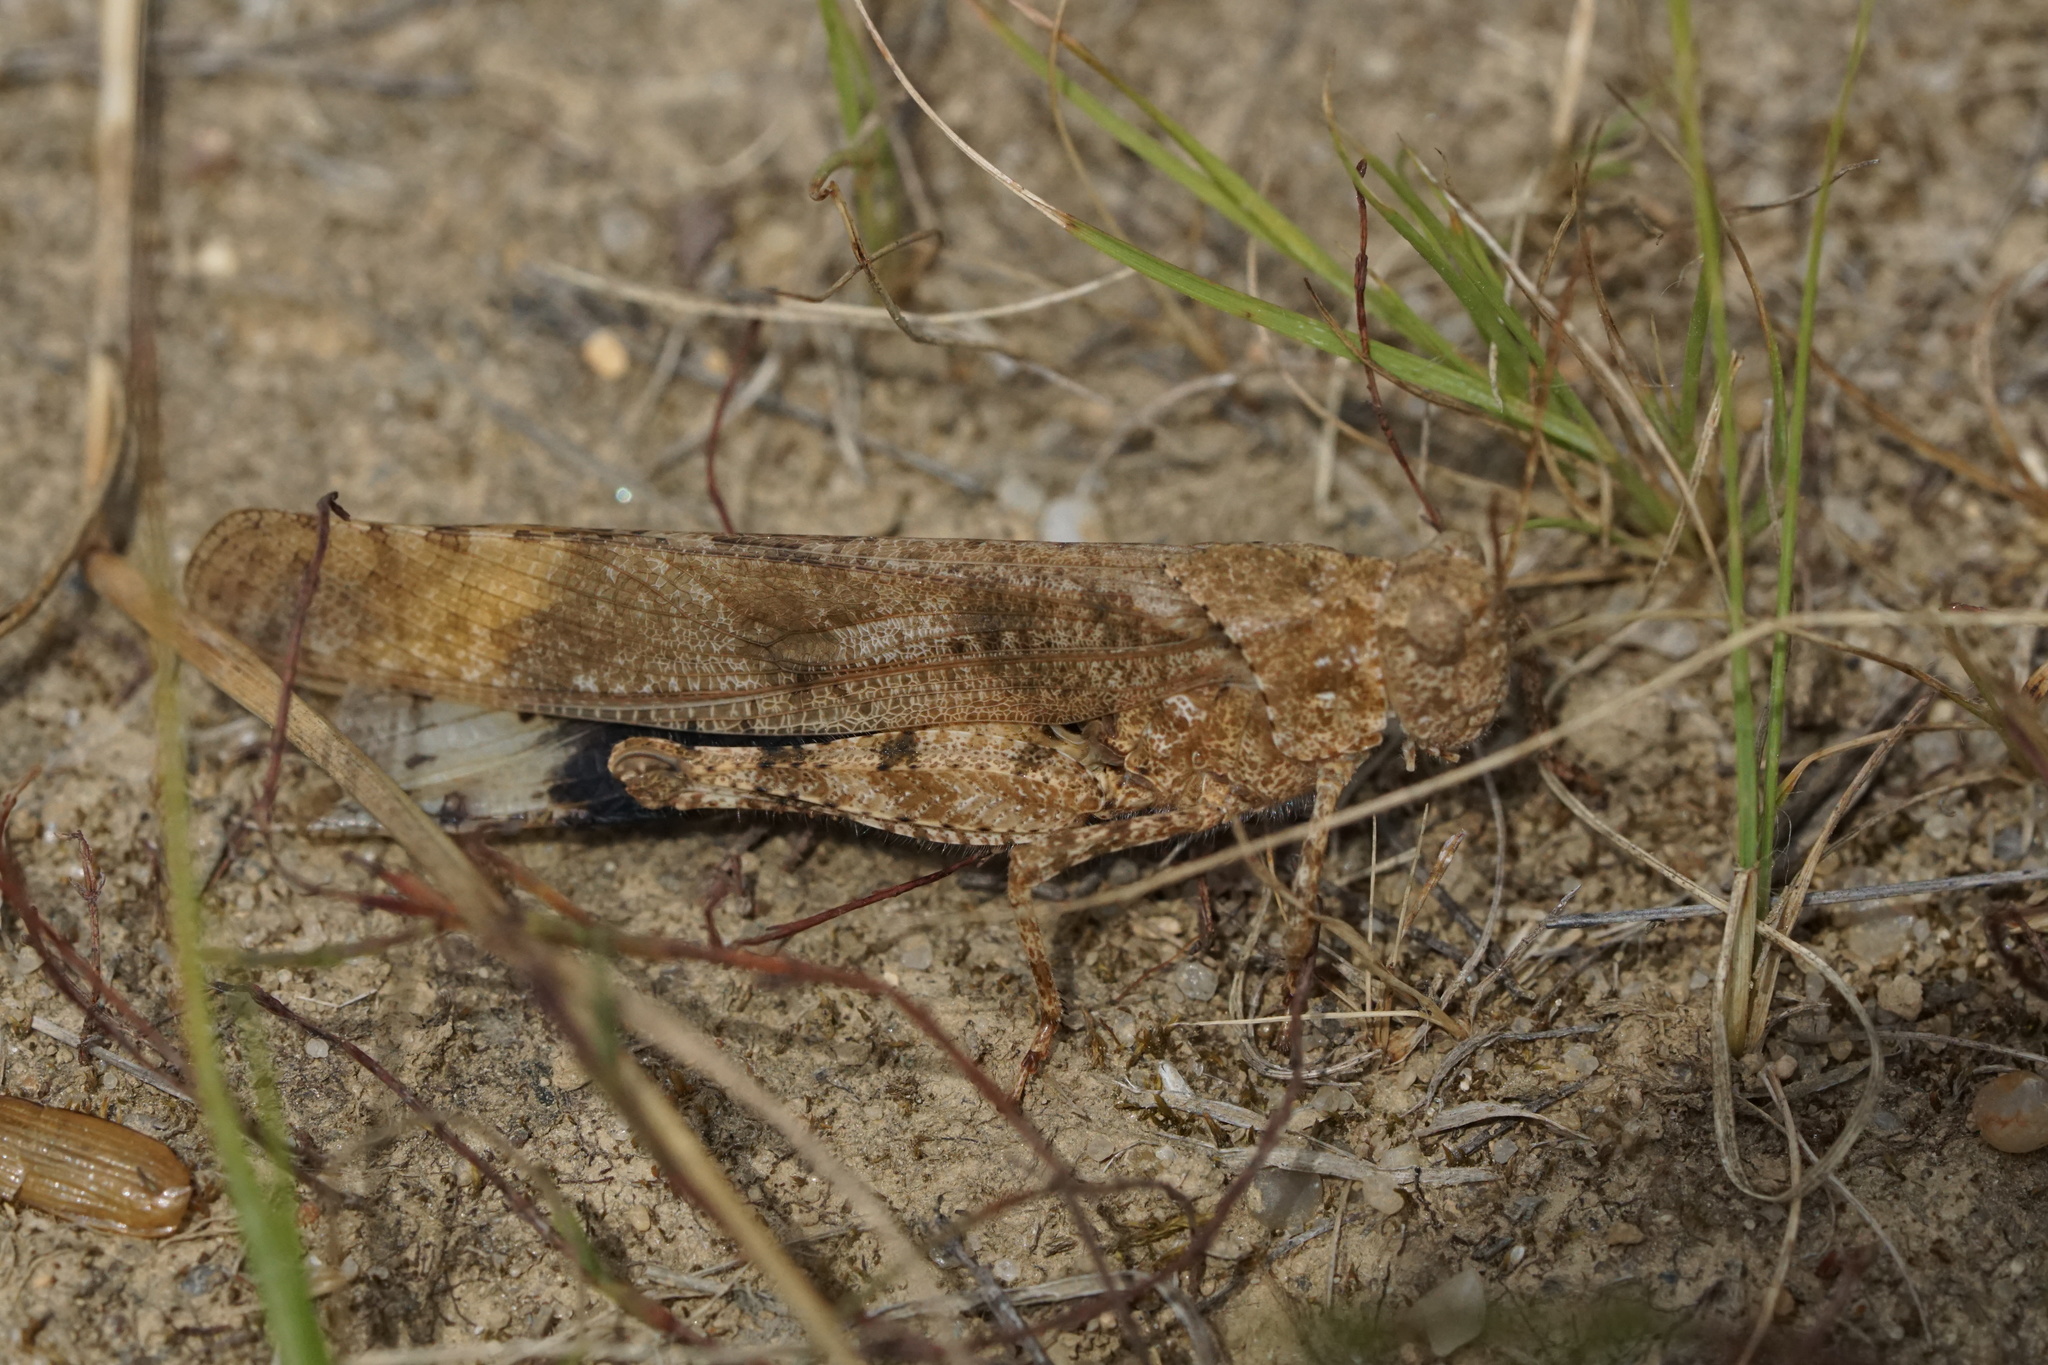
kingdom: Animalia
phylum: Arthropoda
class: Insecta
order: Orthoptera
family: Acrididae
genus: Dissosteira
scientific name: Dissosteira carolina
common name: Carolina grasshopper
